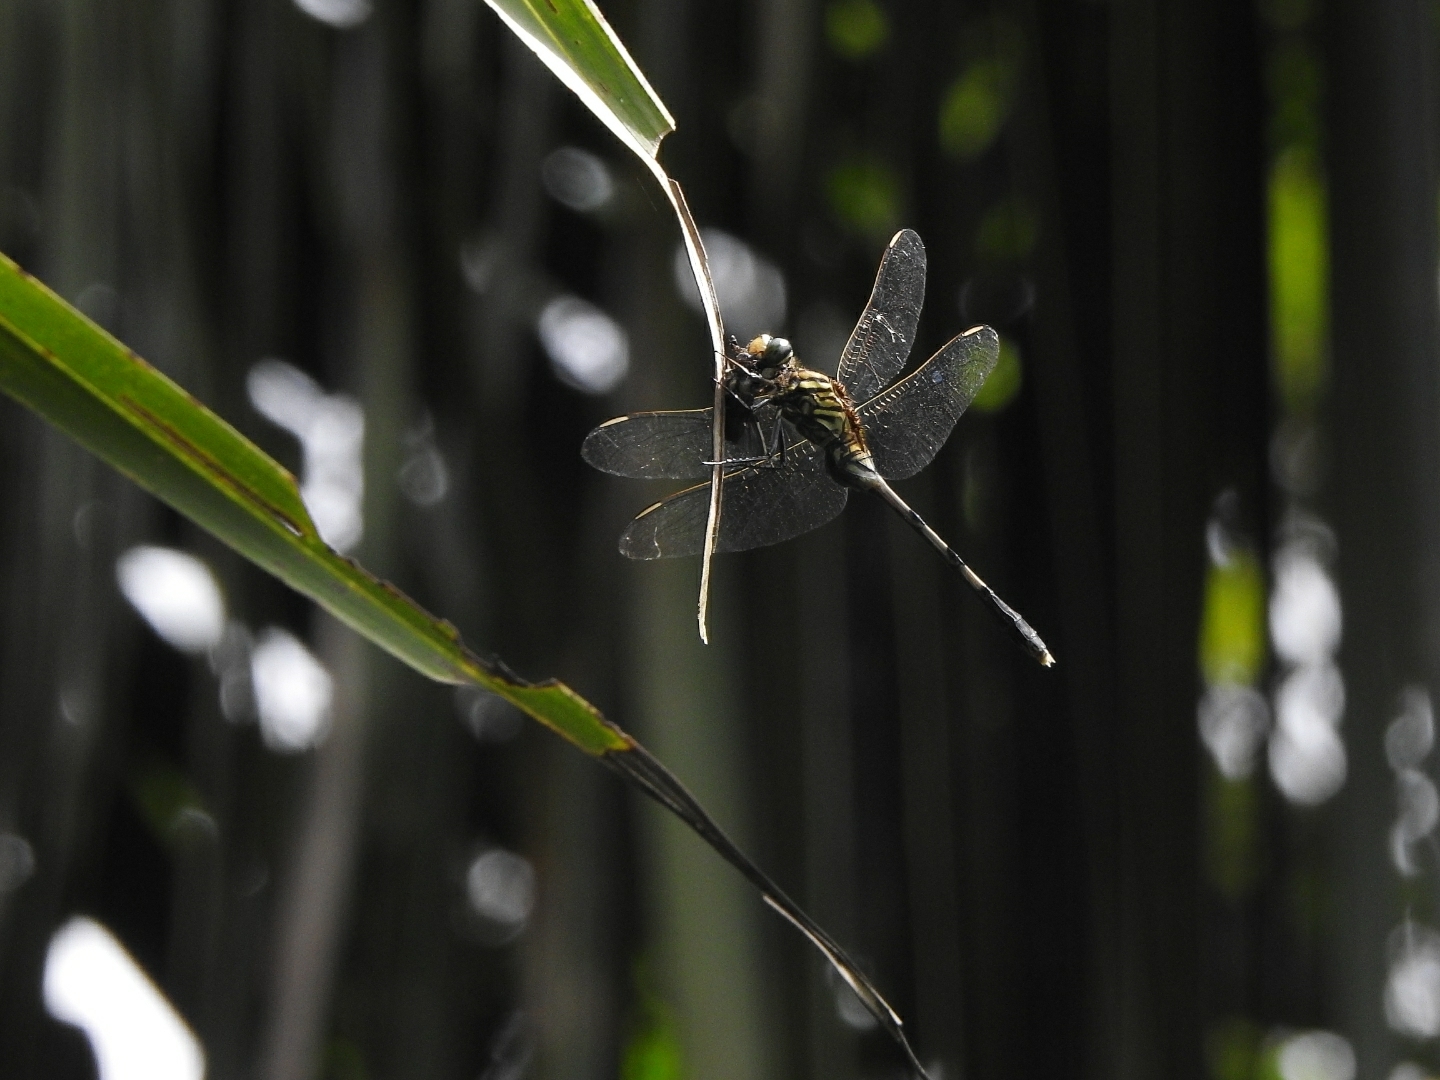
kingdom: Animalia
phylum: Arthropoda
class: Insecta
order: Odonata
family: Libellulidae
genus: Orthetrum
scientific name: Orthetrum sabina
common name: Slender skimmer
